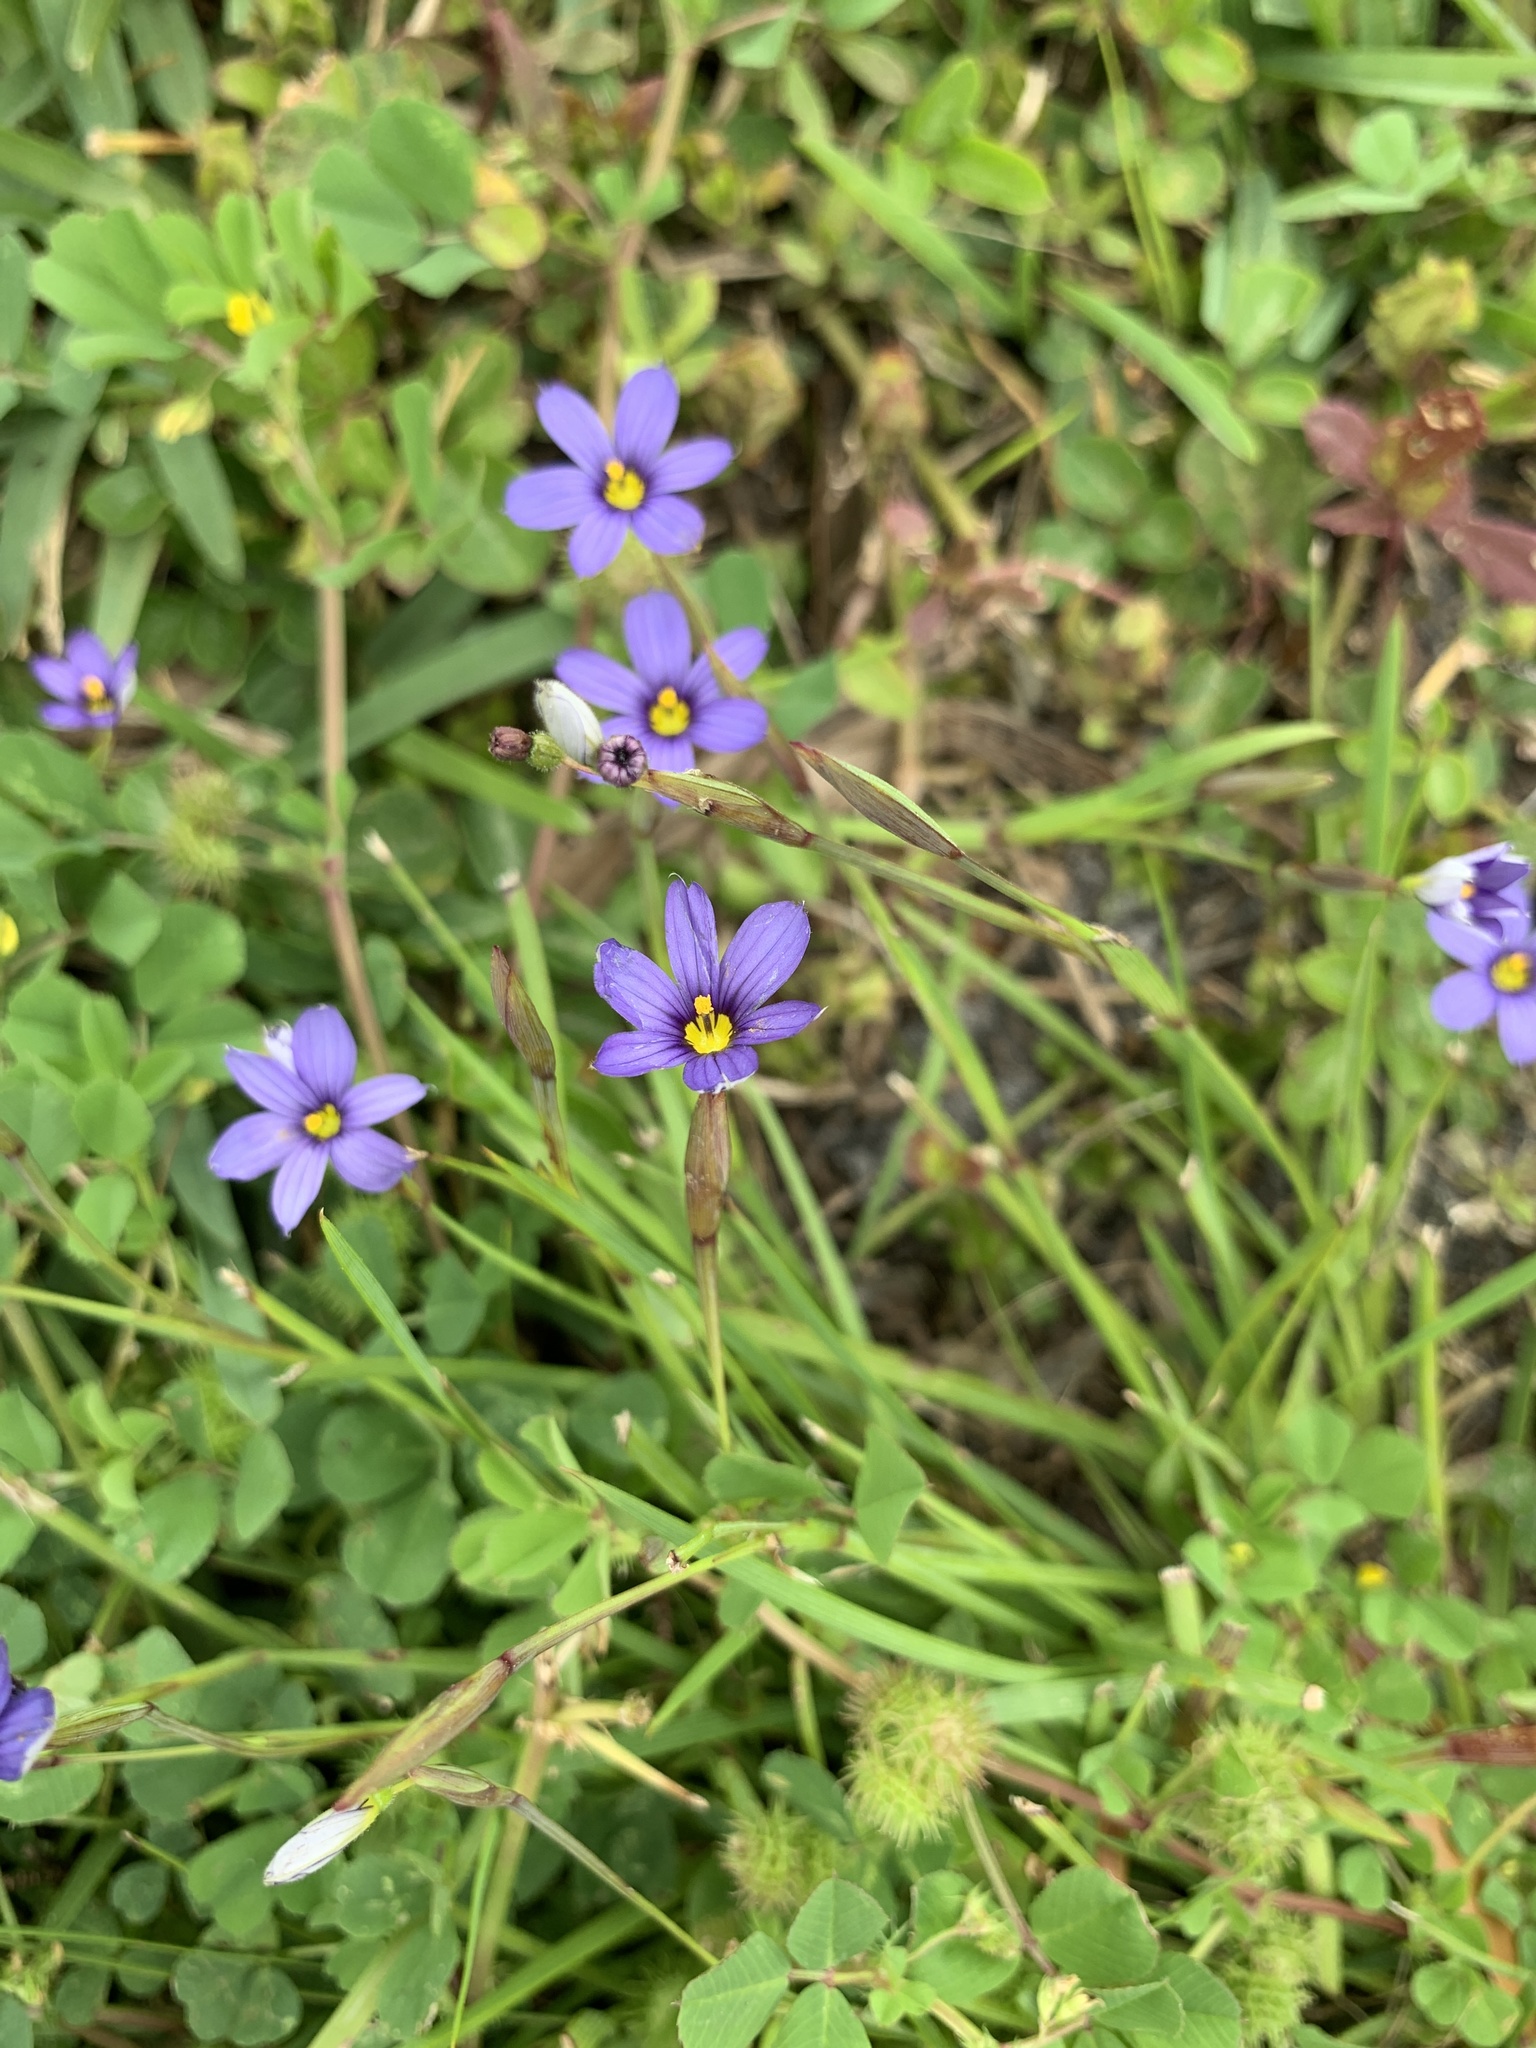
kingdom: Plantae
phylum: Tracheophyta
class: Liliopsida
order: Asparagales
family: Iridaceae
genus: Sisyrinchium
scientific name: Sisyrinchium angustifolium
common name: Narrow-leaf blue-eyed-grass
